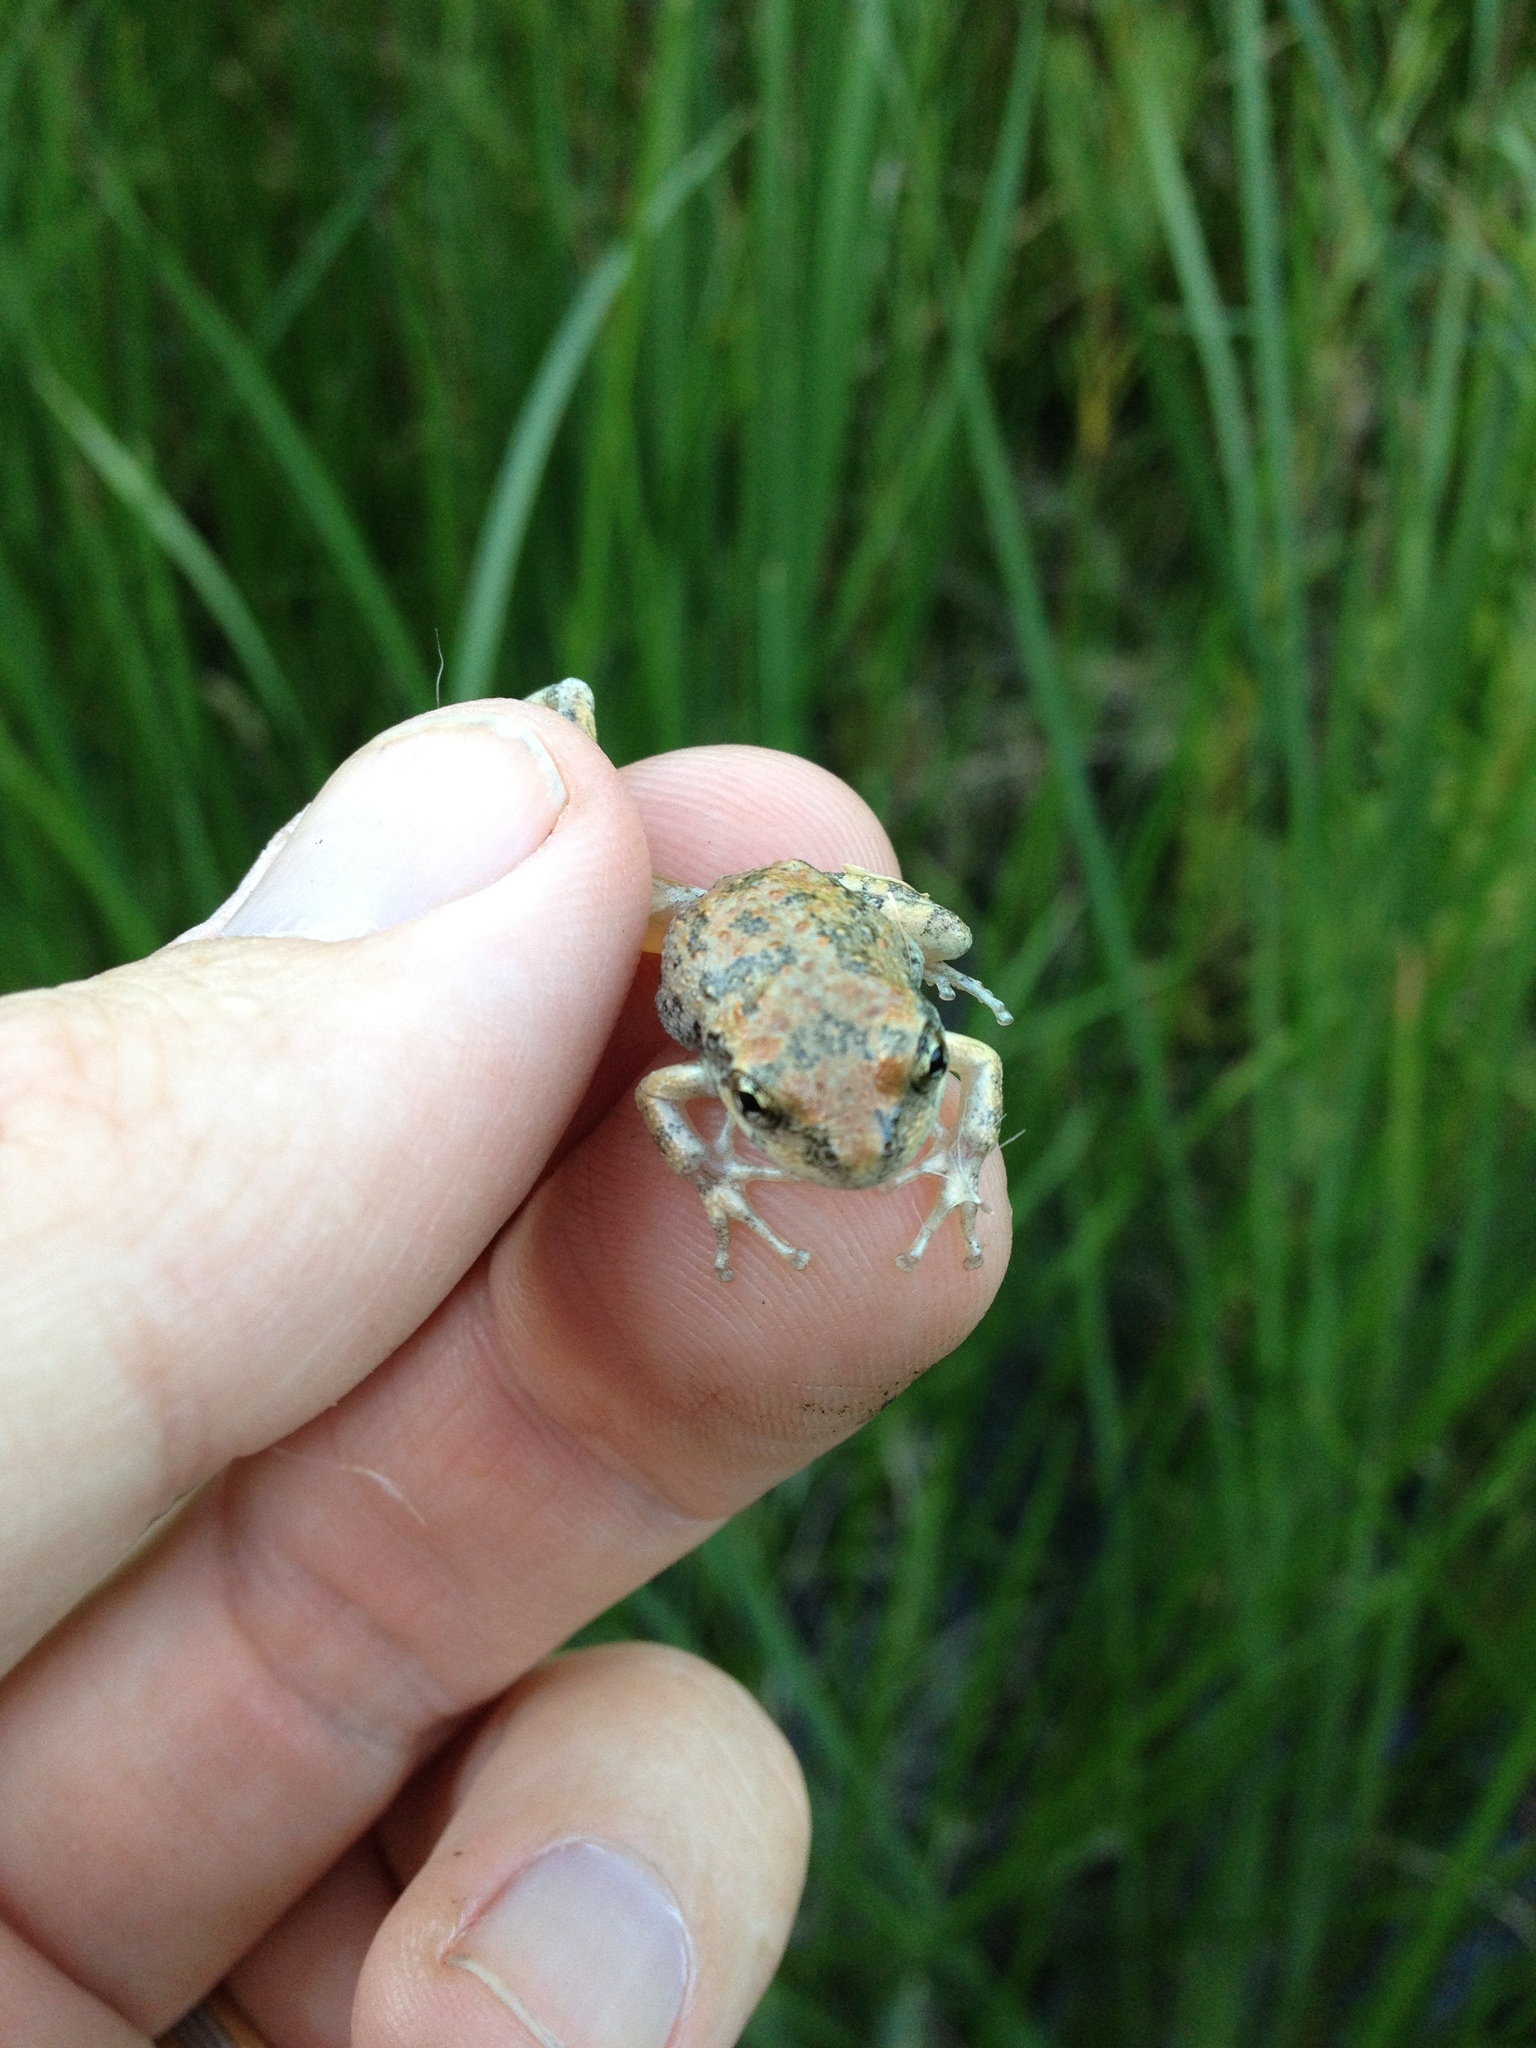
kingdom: Animalia
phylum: Chordata
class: Amphibia
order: Anura
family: Hylidae
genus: Pseudacris
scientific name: Pseudacris cadaverina
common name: California chorus frog
